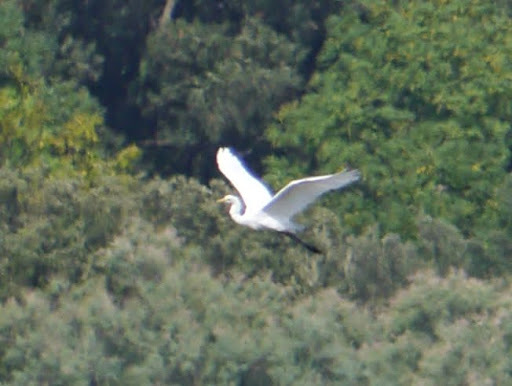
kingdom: Animalia
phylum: Chordata
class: Aves
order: Pelecaniformes
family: Ardeidae
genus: Ardea
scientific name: Ardea alba
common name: Great egret
